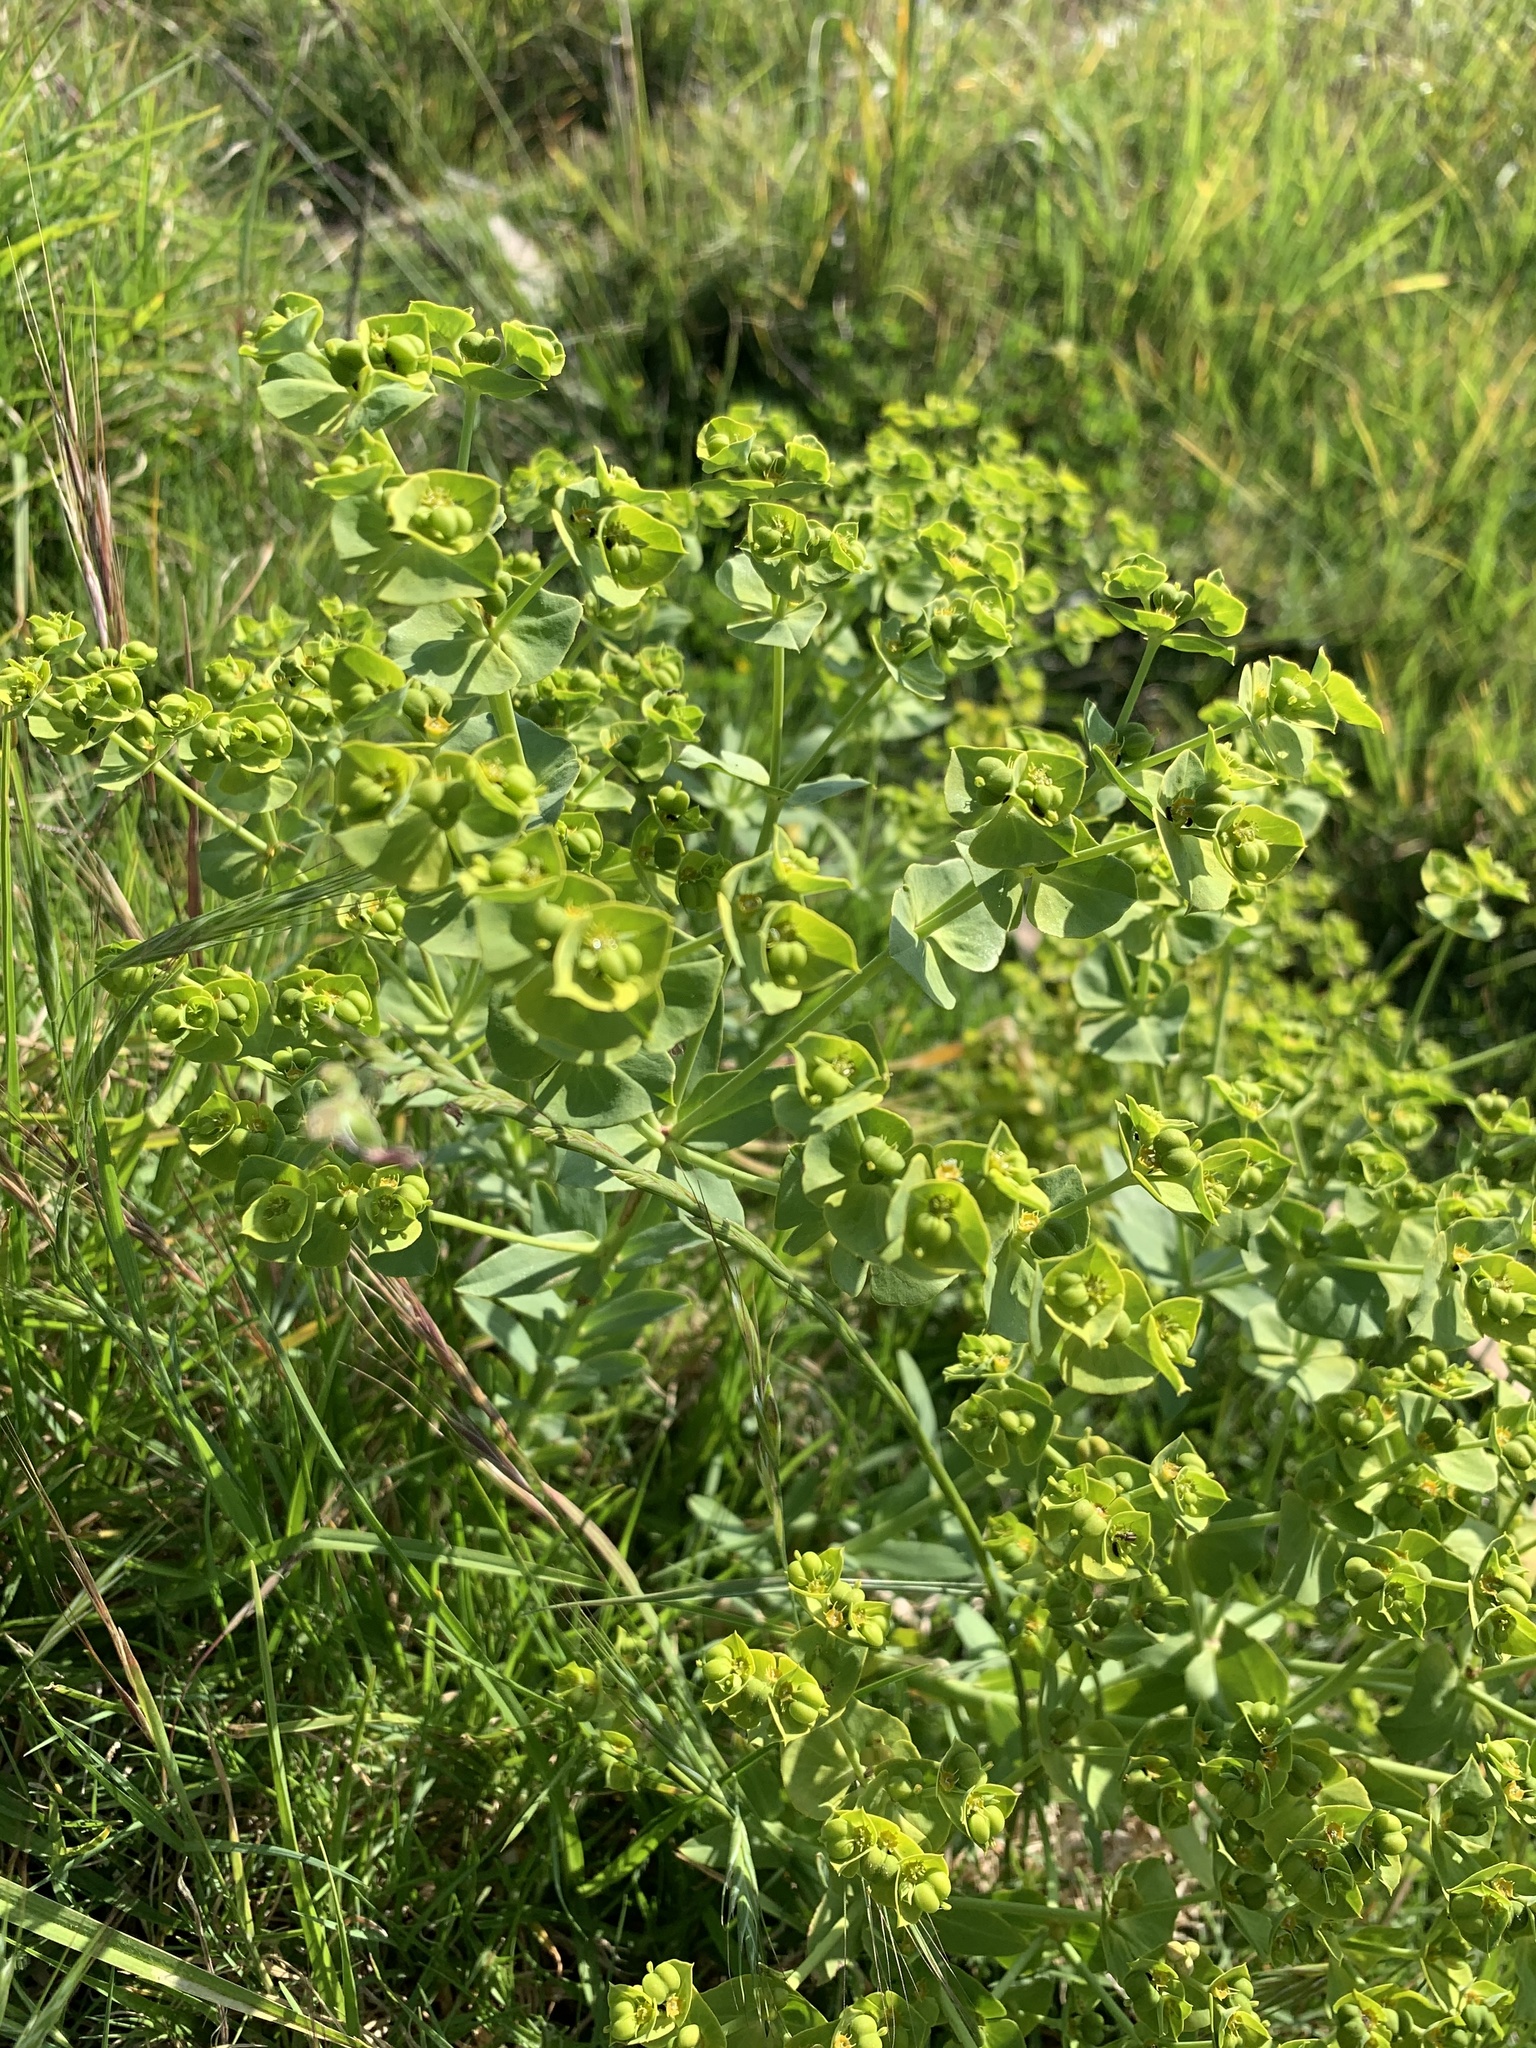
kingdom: Plantae
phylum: Tracheophyta
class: Magnoliopsida
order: Malpighiales
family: Euphorbiaceae
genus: Euphorbia
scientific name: Euphorbia terracina
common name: Geraldton carnation weed
